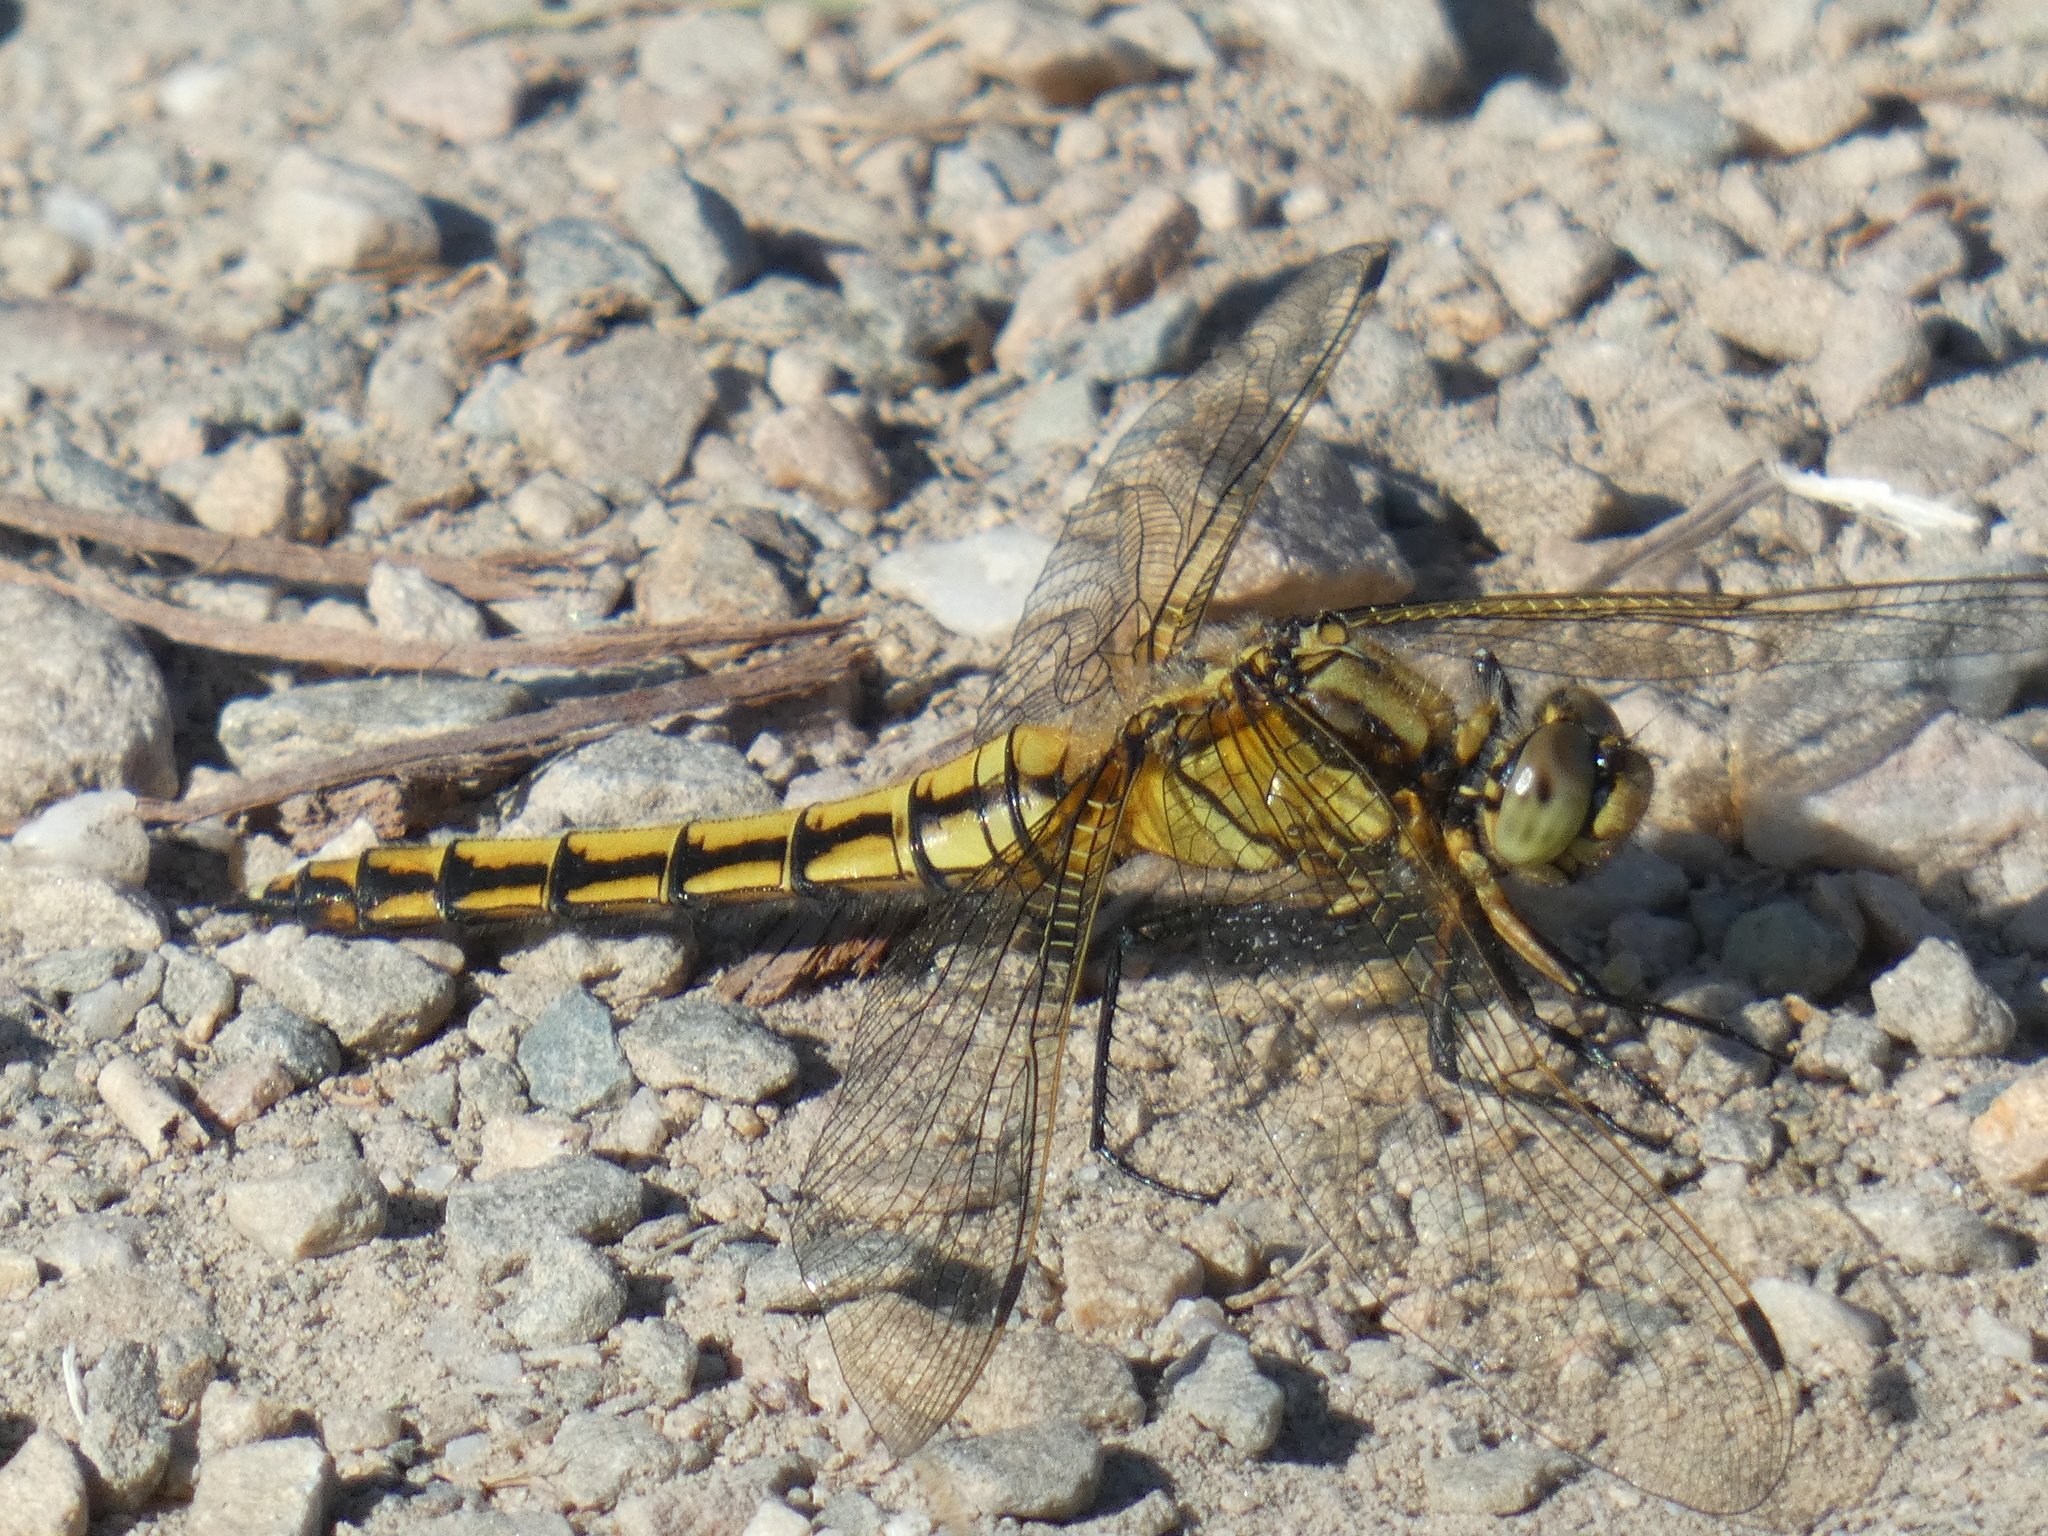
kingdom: Animalia
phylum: Arthropoda
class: Insecta
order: Odonata
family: Libellulidae
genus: Orthetrum
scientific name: Orthetrum cancellatum
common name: Black-tailed skimmer
